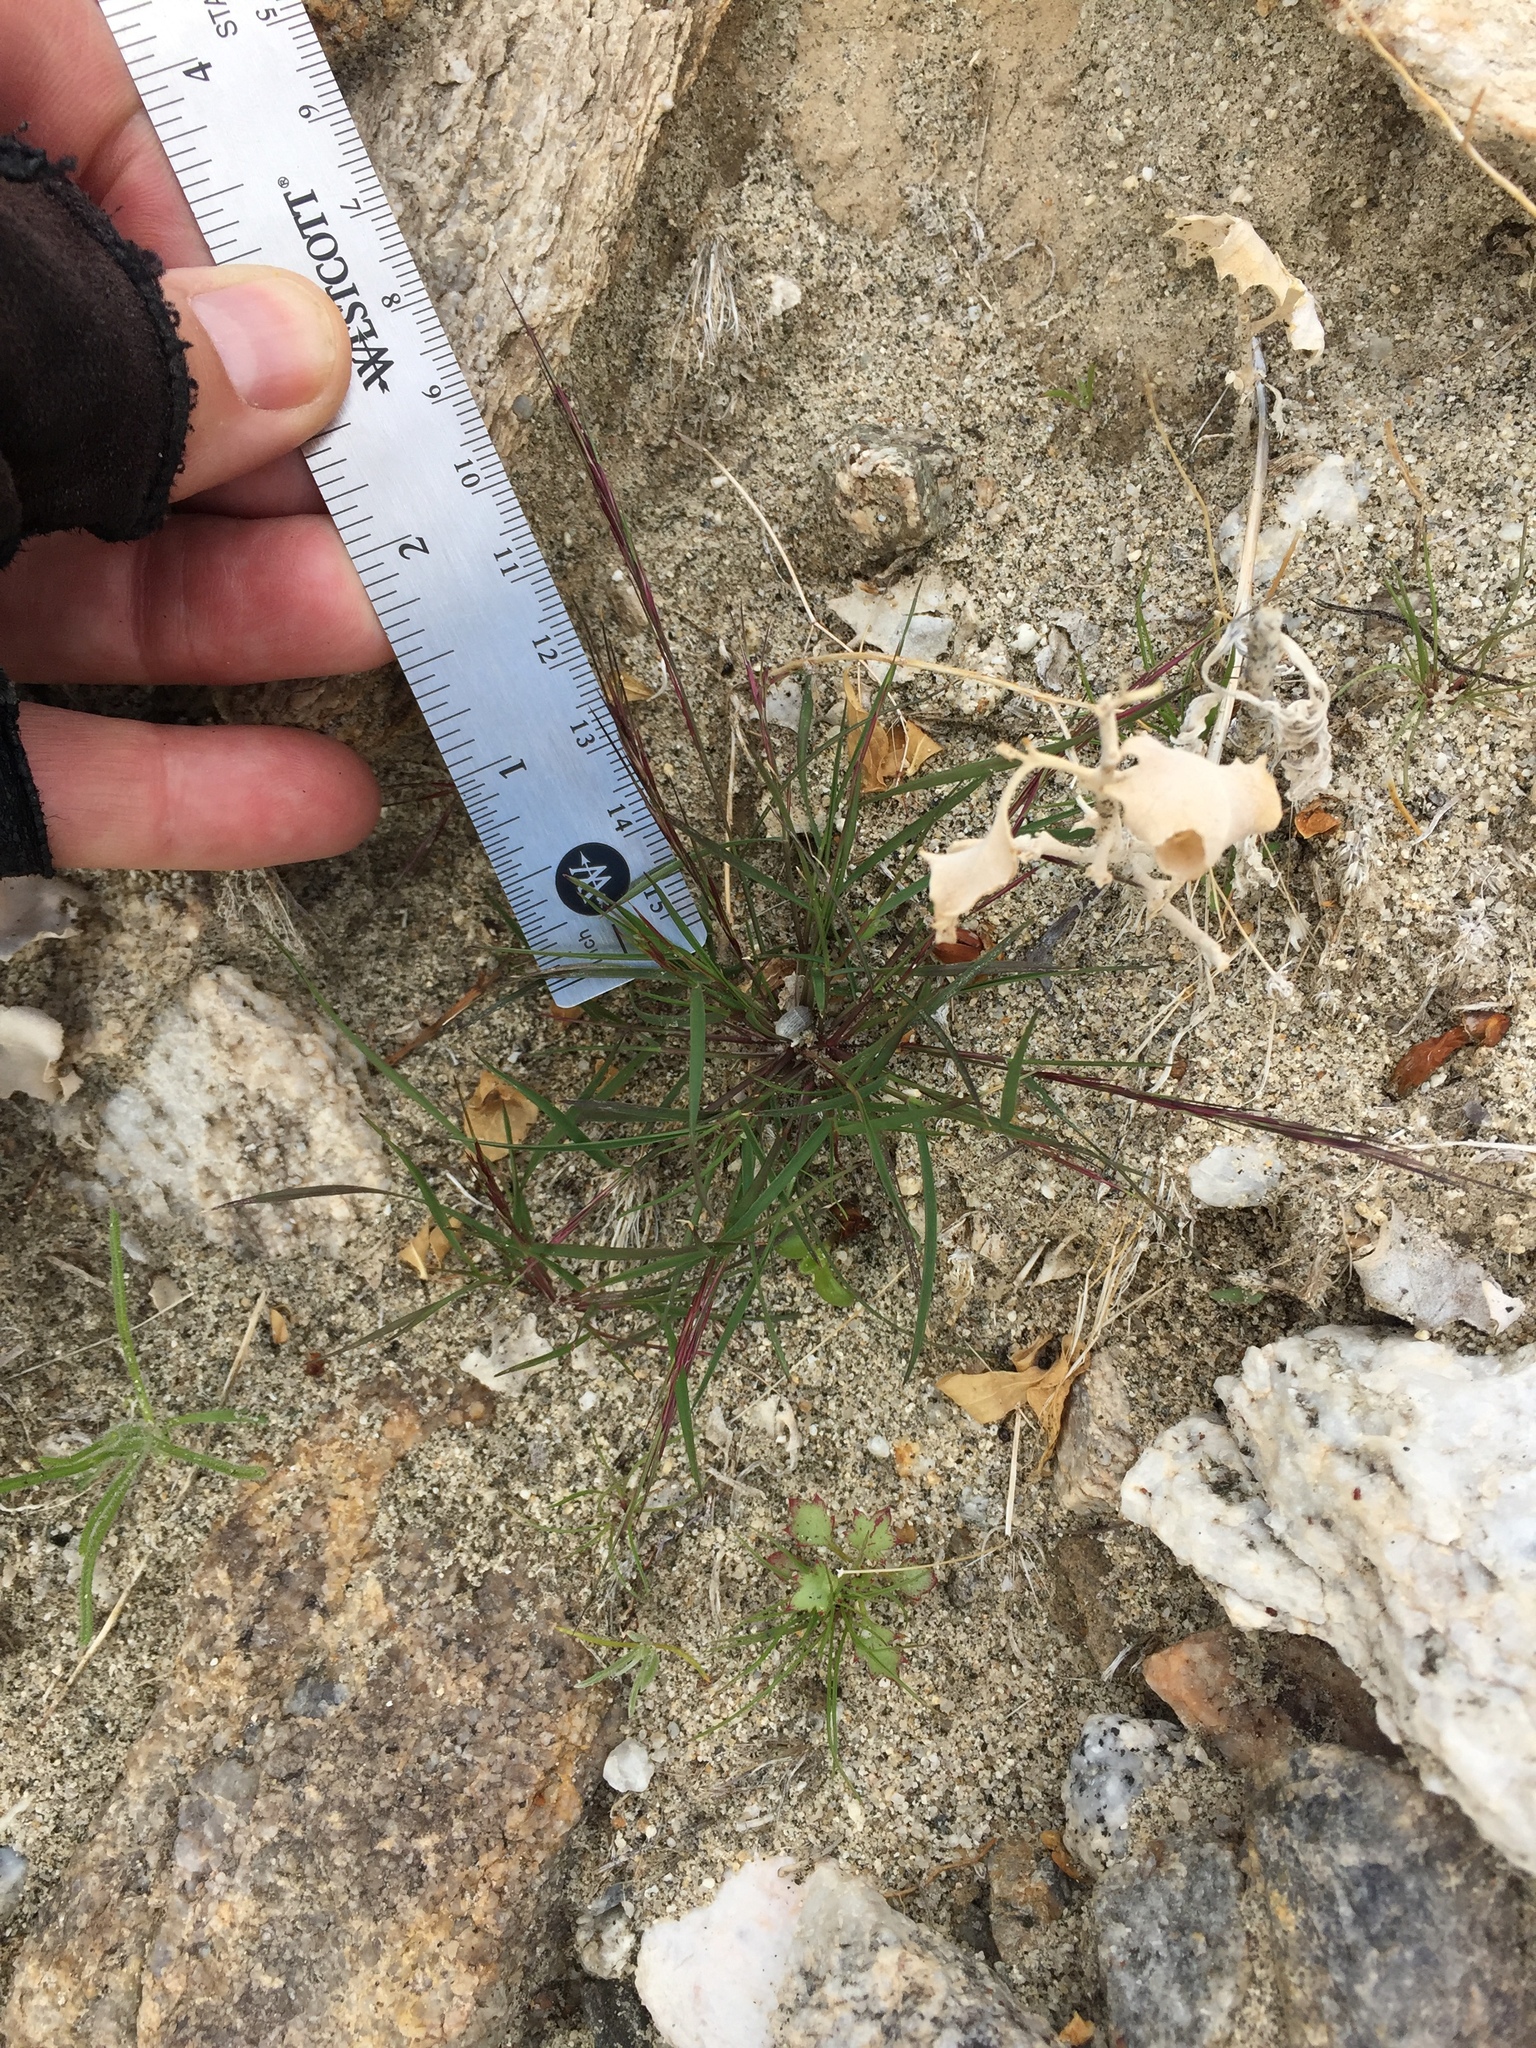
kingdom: Plantae
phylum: Tracheophyta
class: Liliopsida
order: Poales
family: Poaceae
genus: Aristida
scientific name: Aristida adscensionis
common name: Sixweeks threeawn
